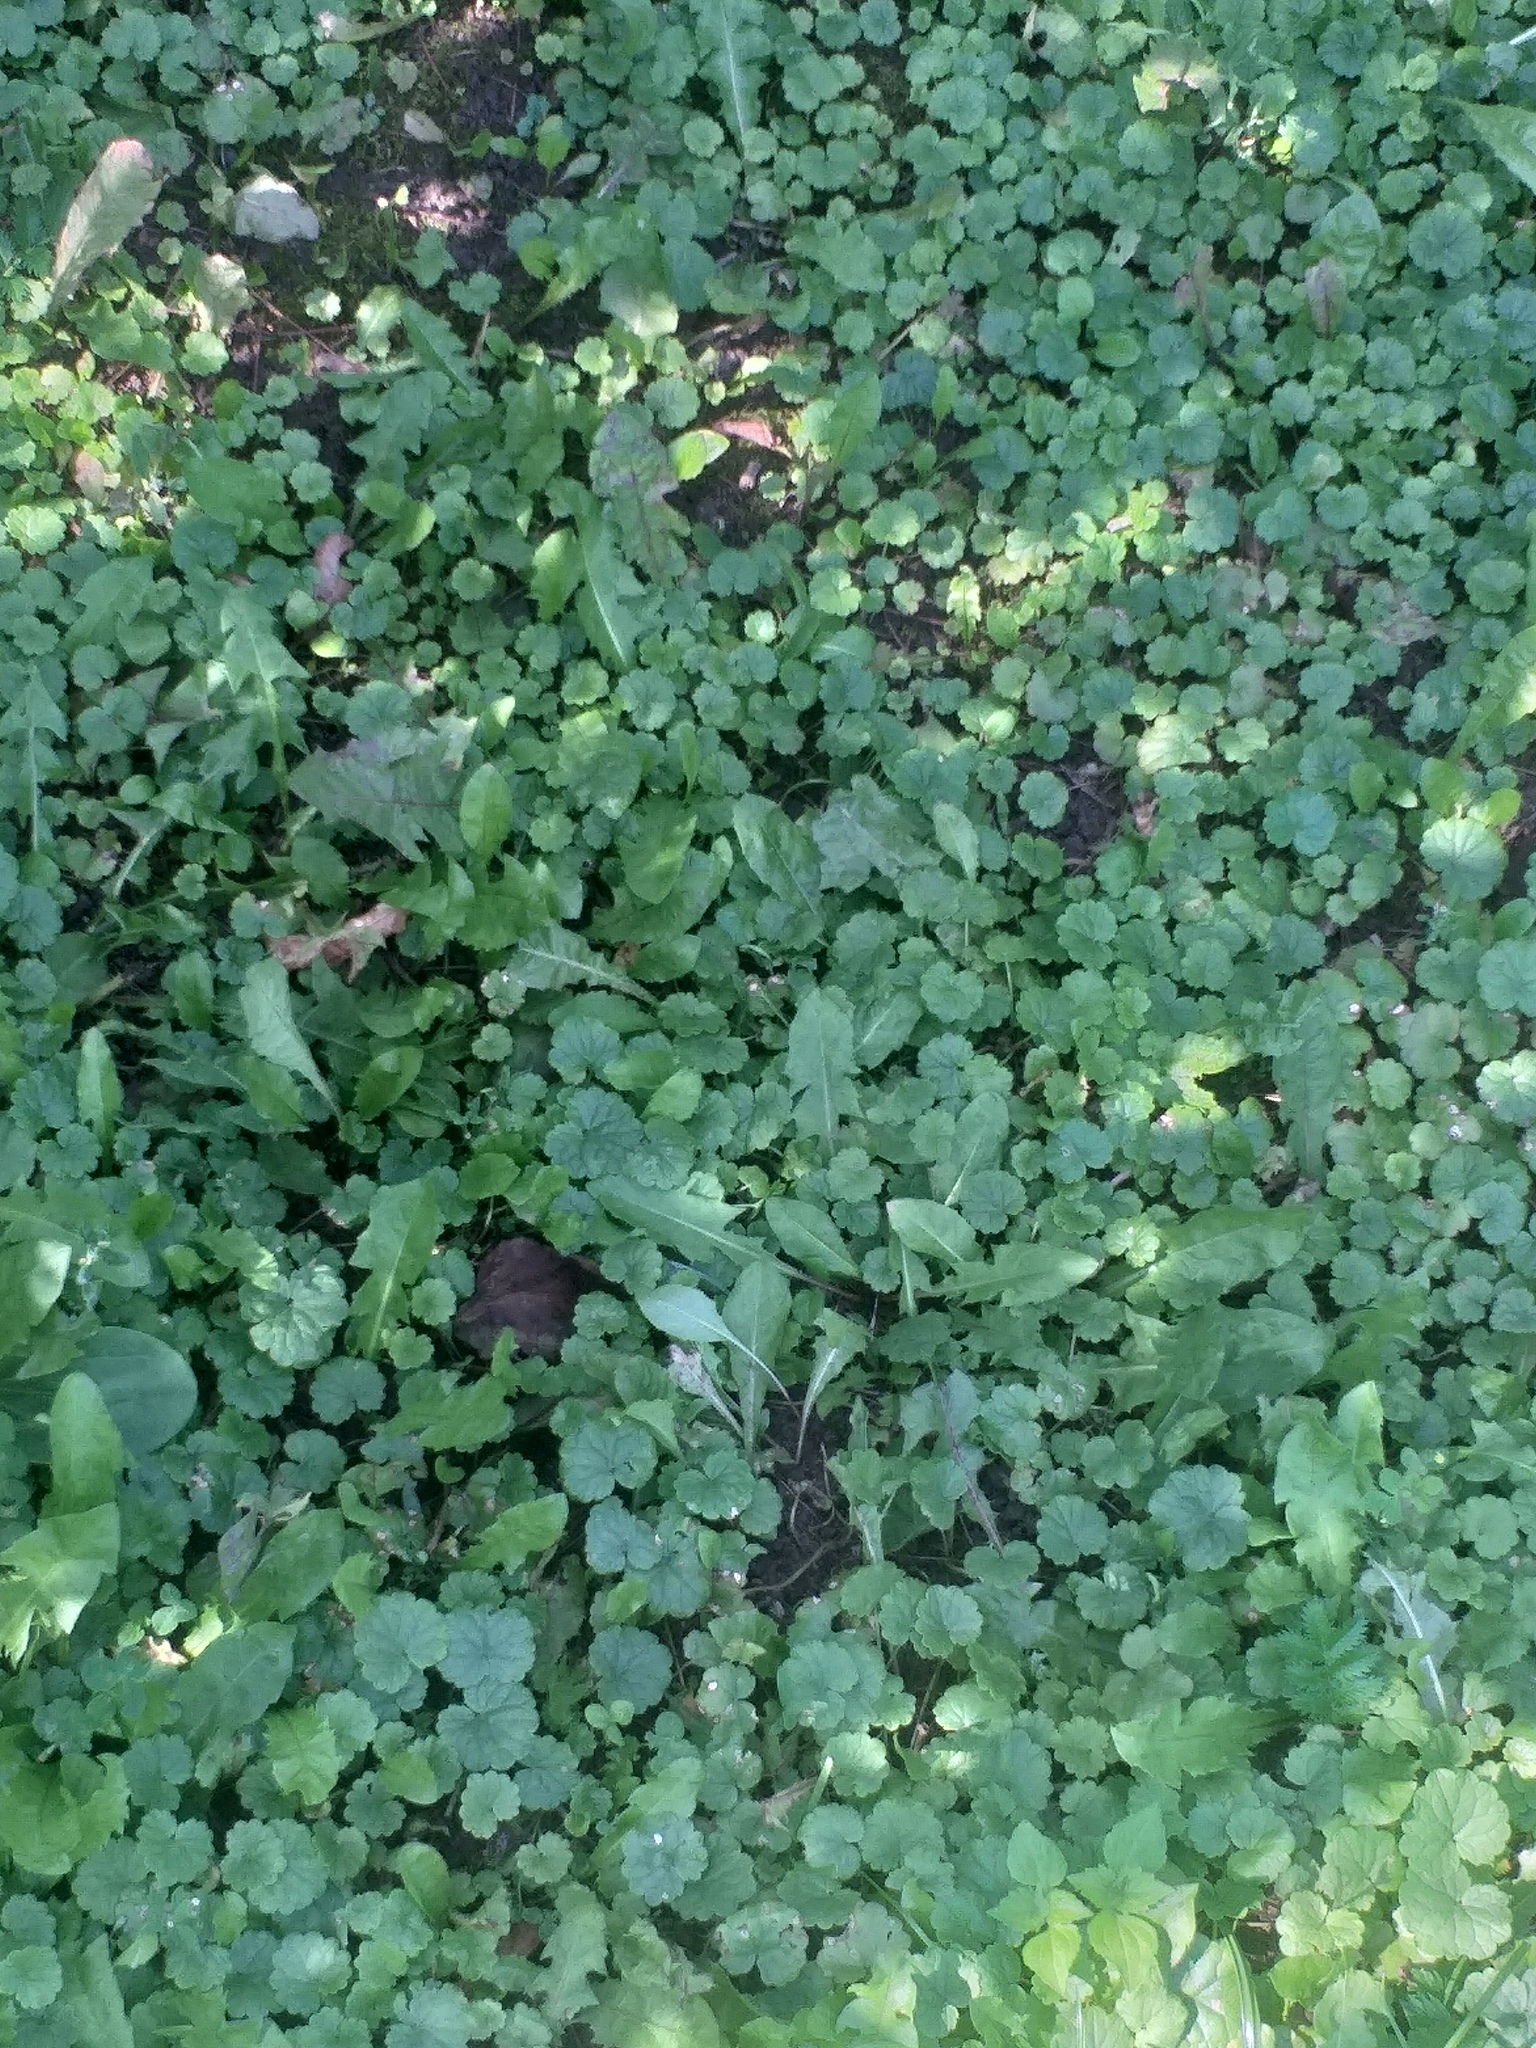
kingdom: Plantae
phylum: Tracheophyta
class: Magnoliopsida
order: Lamiales
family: Lamiaceae
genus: Glechoma
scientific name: Glechoma hederacea
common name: Ground ivy
